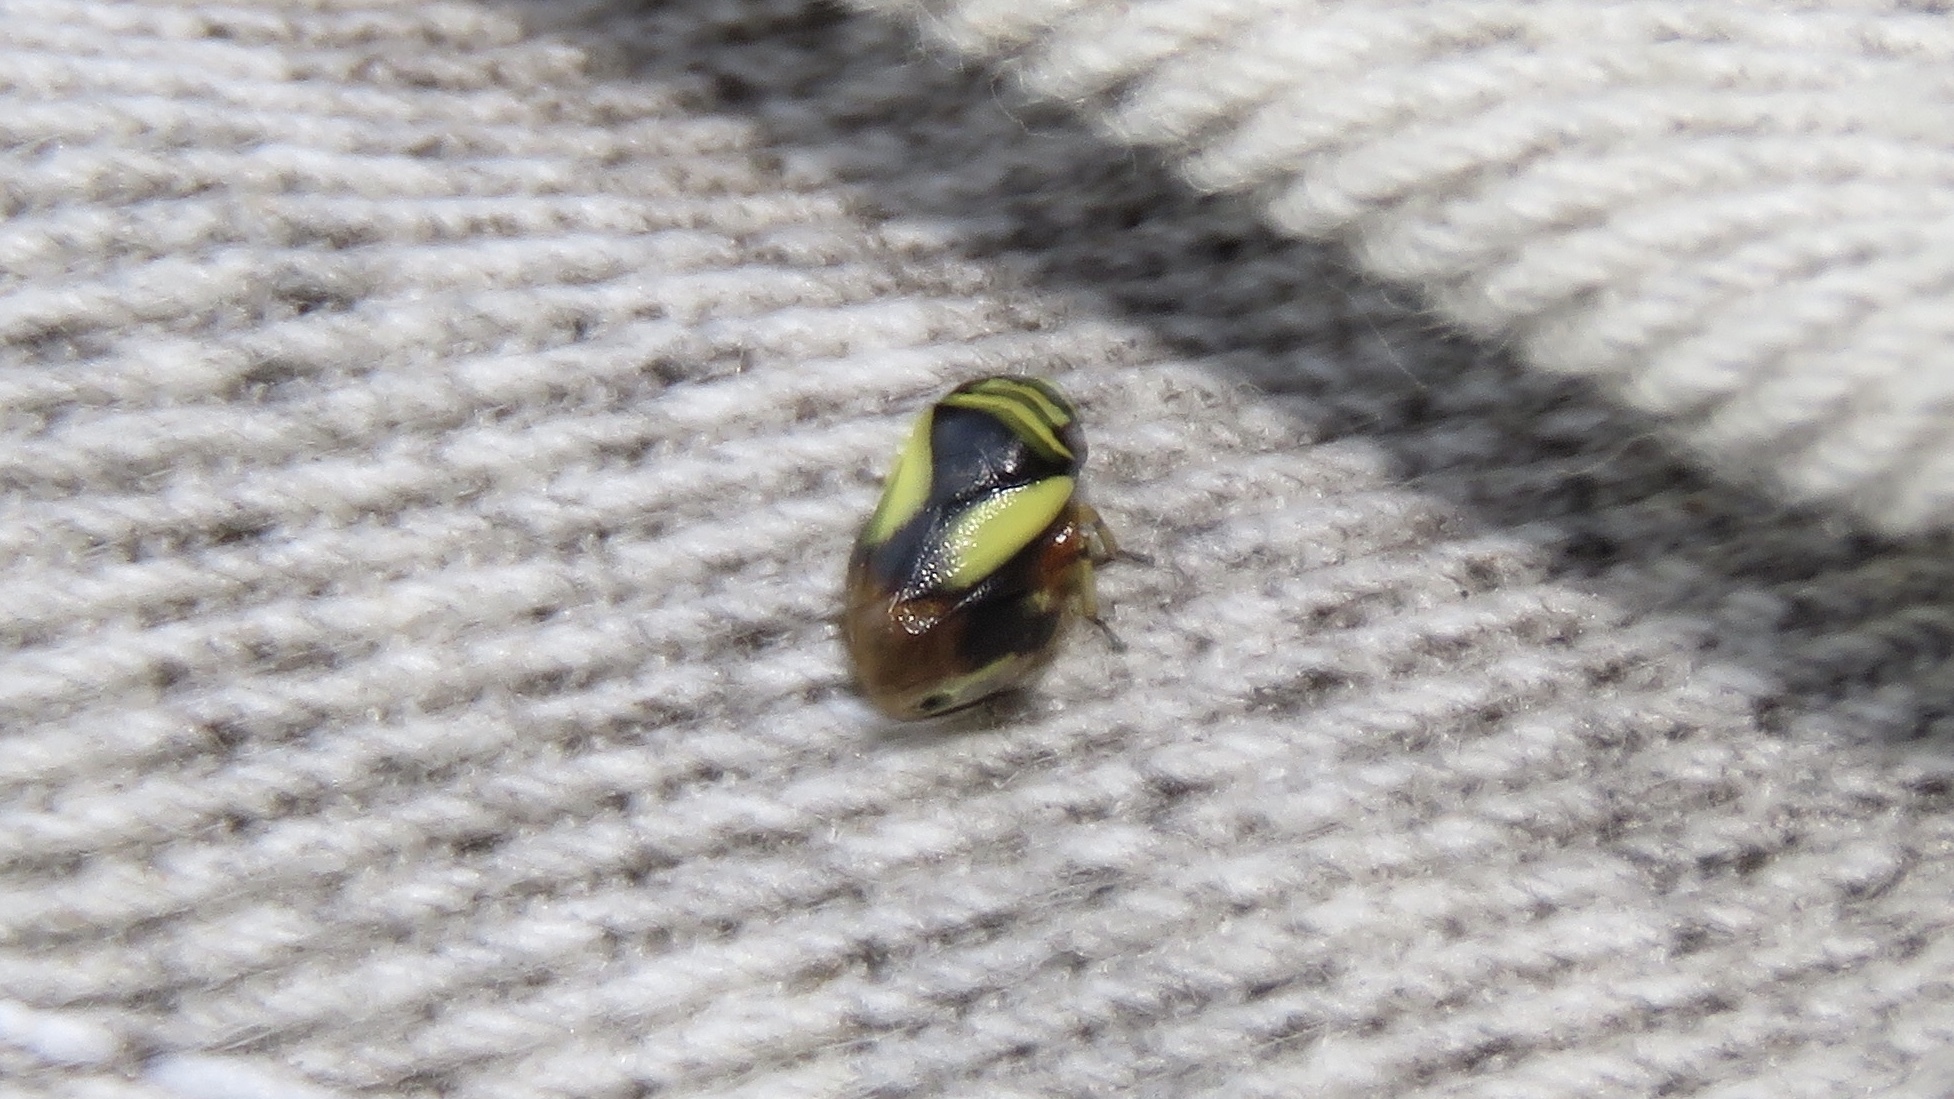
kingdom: Animalia
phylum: Arthropoda
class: Insecta
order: Hemiptera
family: Clastopteridae
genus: Clastoptera
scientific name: Clastoptera proteus
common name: Dogwood spittlebug
